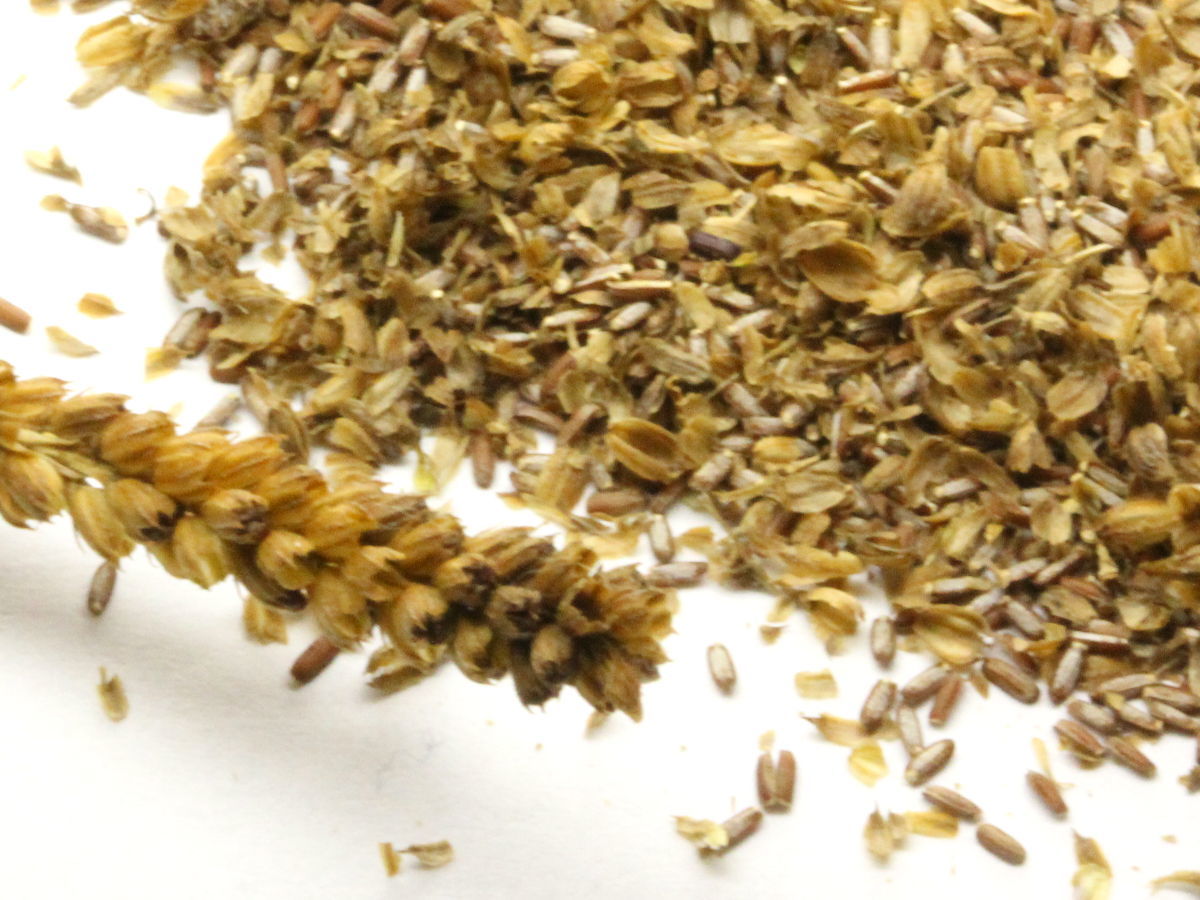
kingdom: Plantae
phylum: Tracheophyta
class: Magnoliopsida
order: Lamiales
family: Verbenaceae
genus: Verbena
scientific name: Verbena hastata
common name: American blue vervain
